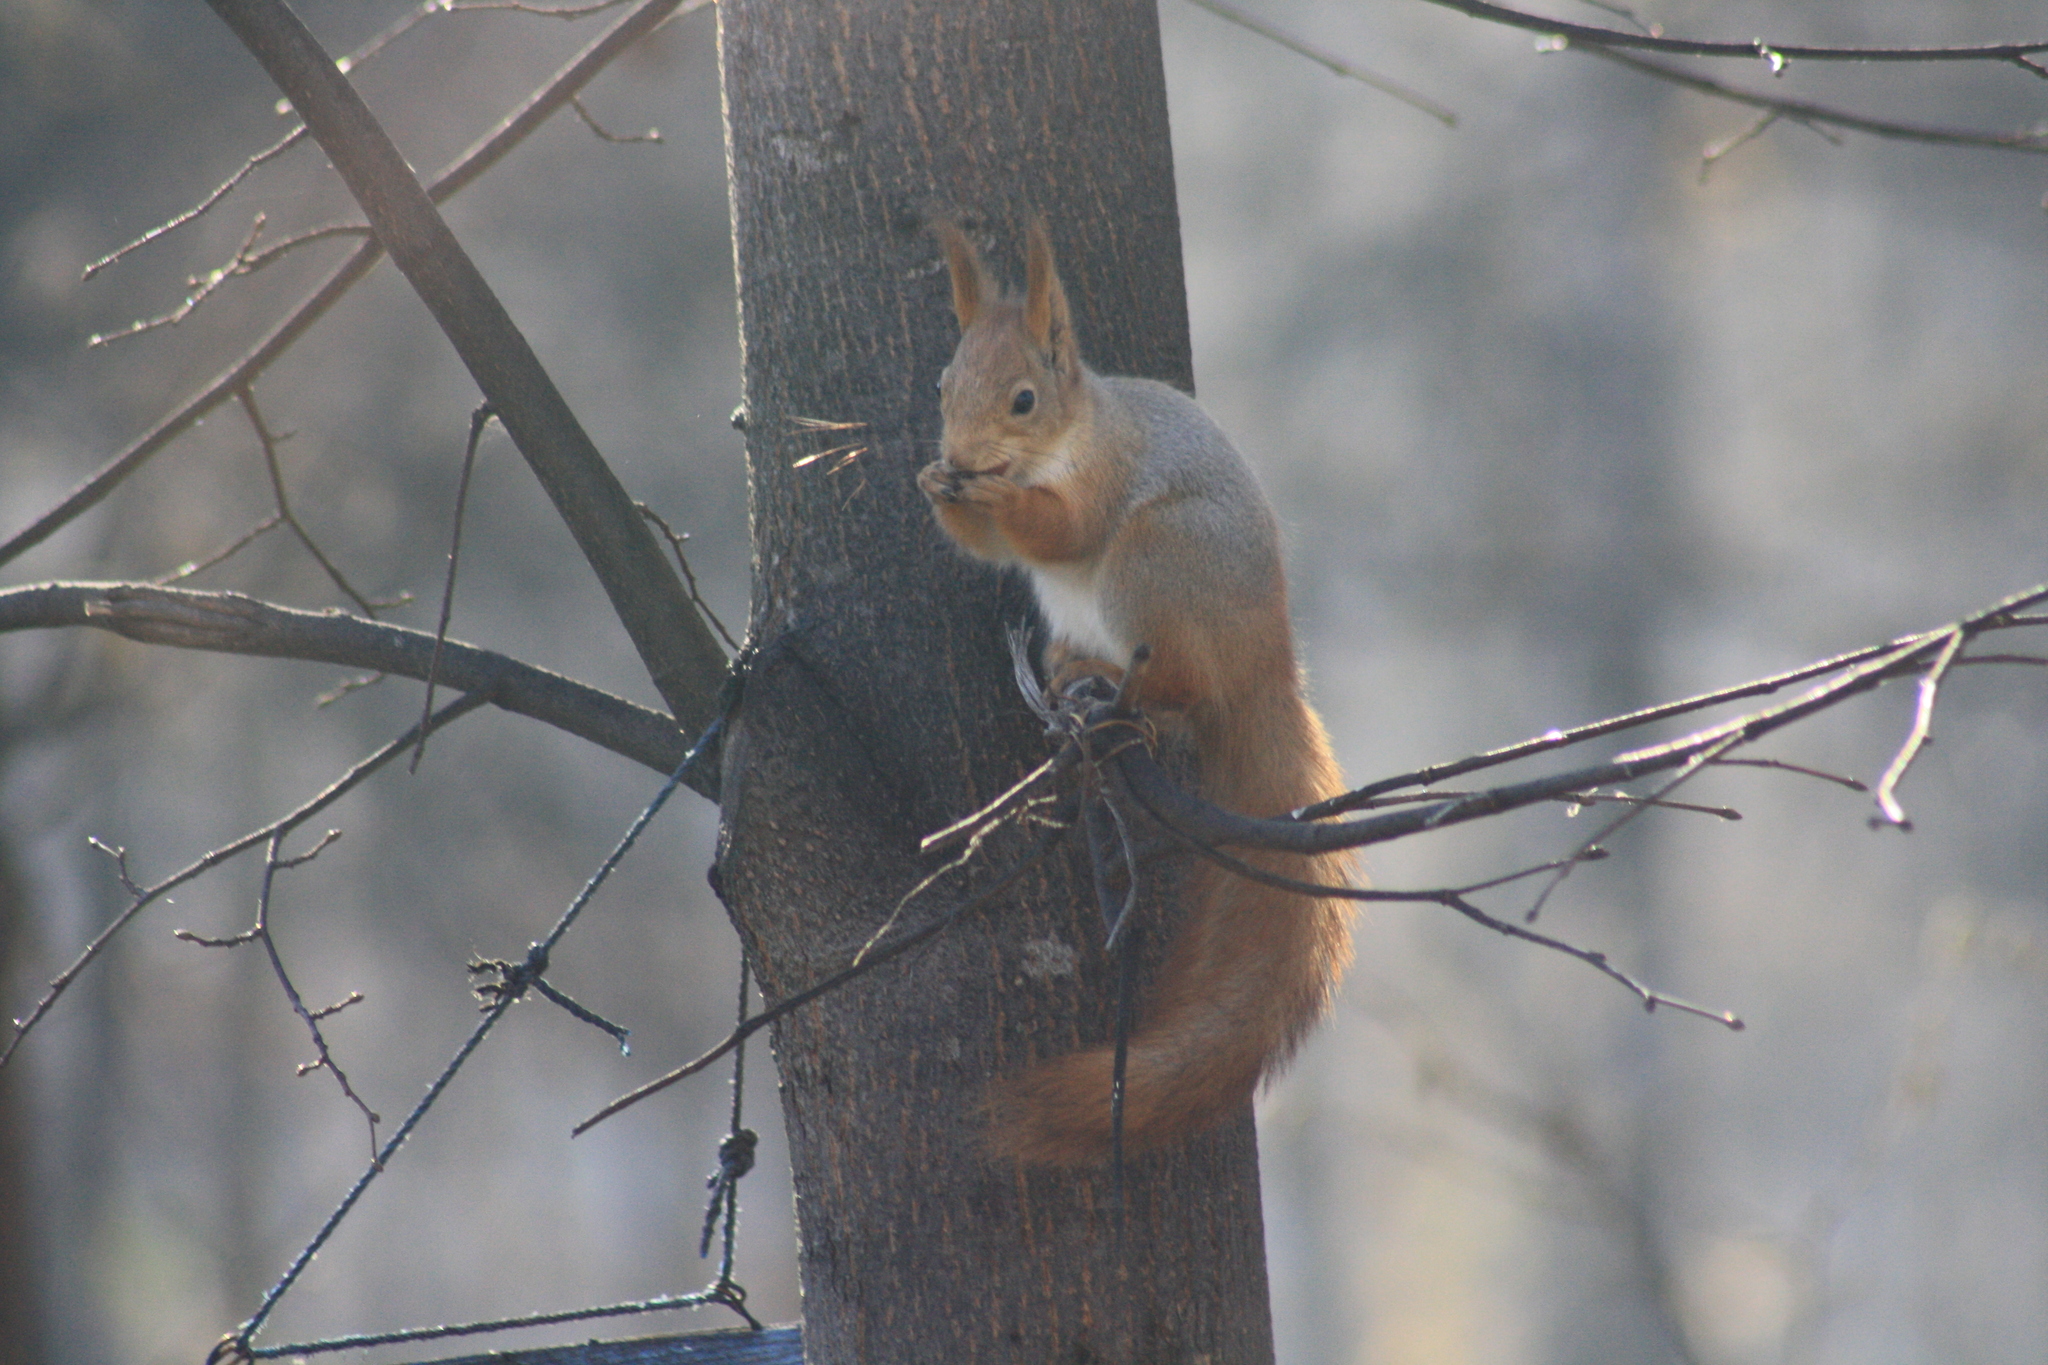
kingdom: Animalia
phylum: Chordata
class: Mammalia
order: Rodentia
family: Sciuridae
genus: Sciurus
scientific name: Sciurus vulgaris
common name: Eurasian red squirrel
